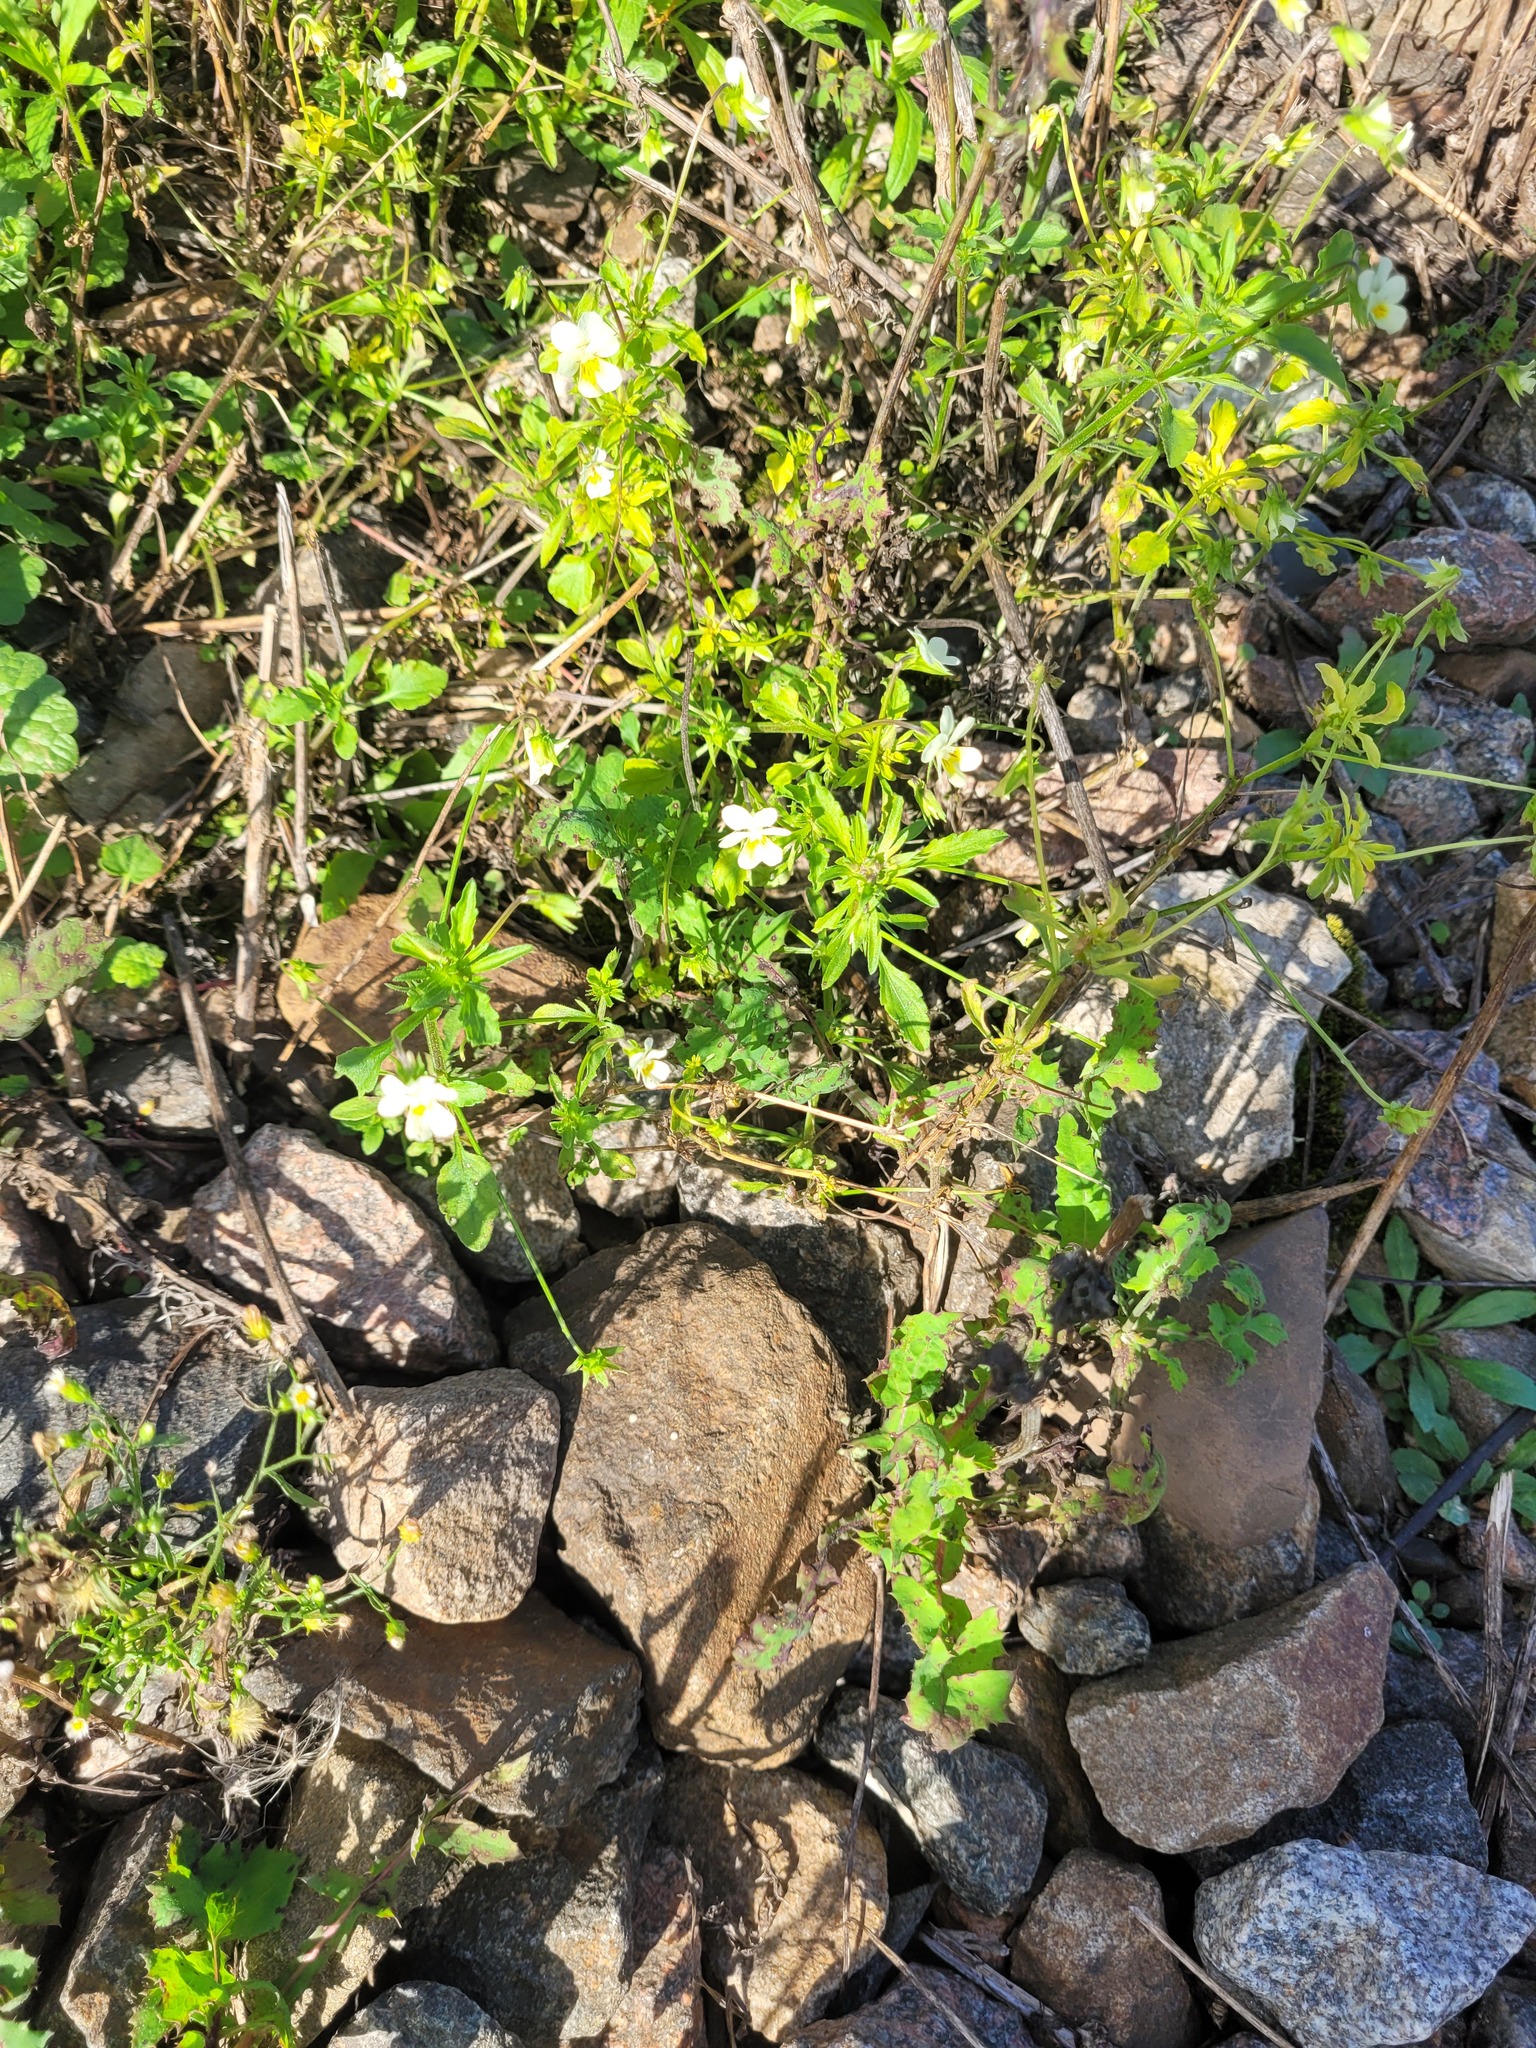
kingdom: Plantae
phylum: Tracheophyta
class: Magnoliopsida
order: Malpighiales
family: Violaceae
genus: Viola
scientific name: Viola arvensis
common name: Field pansy
